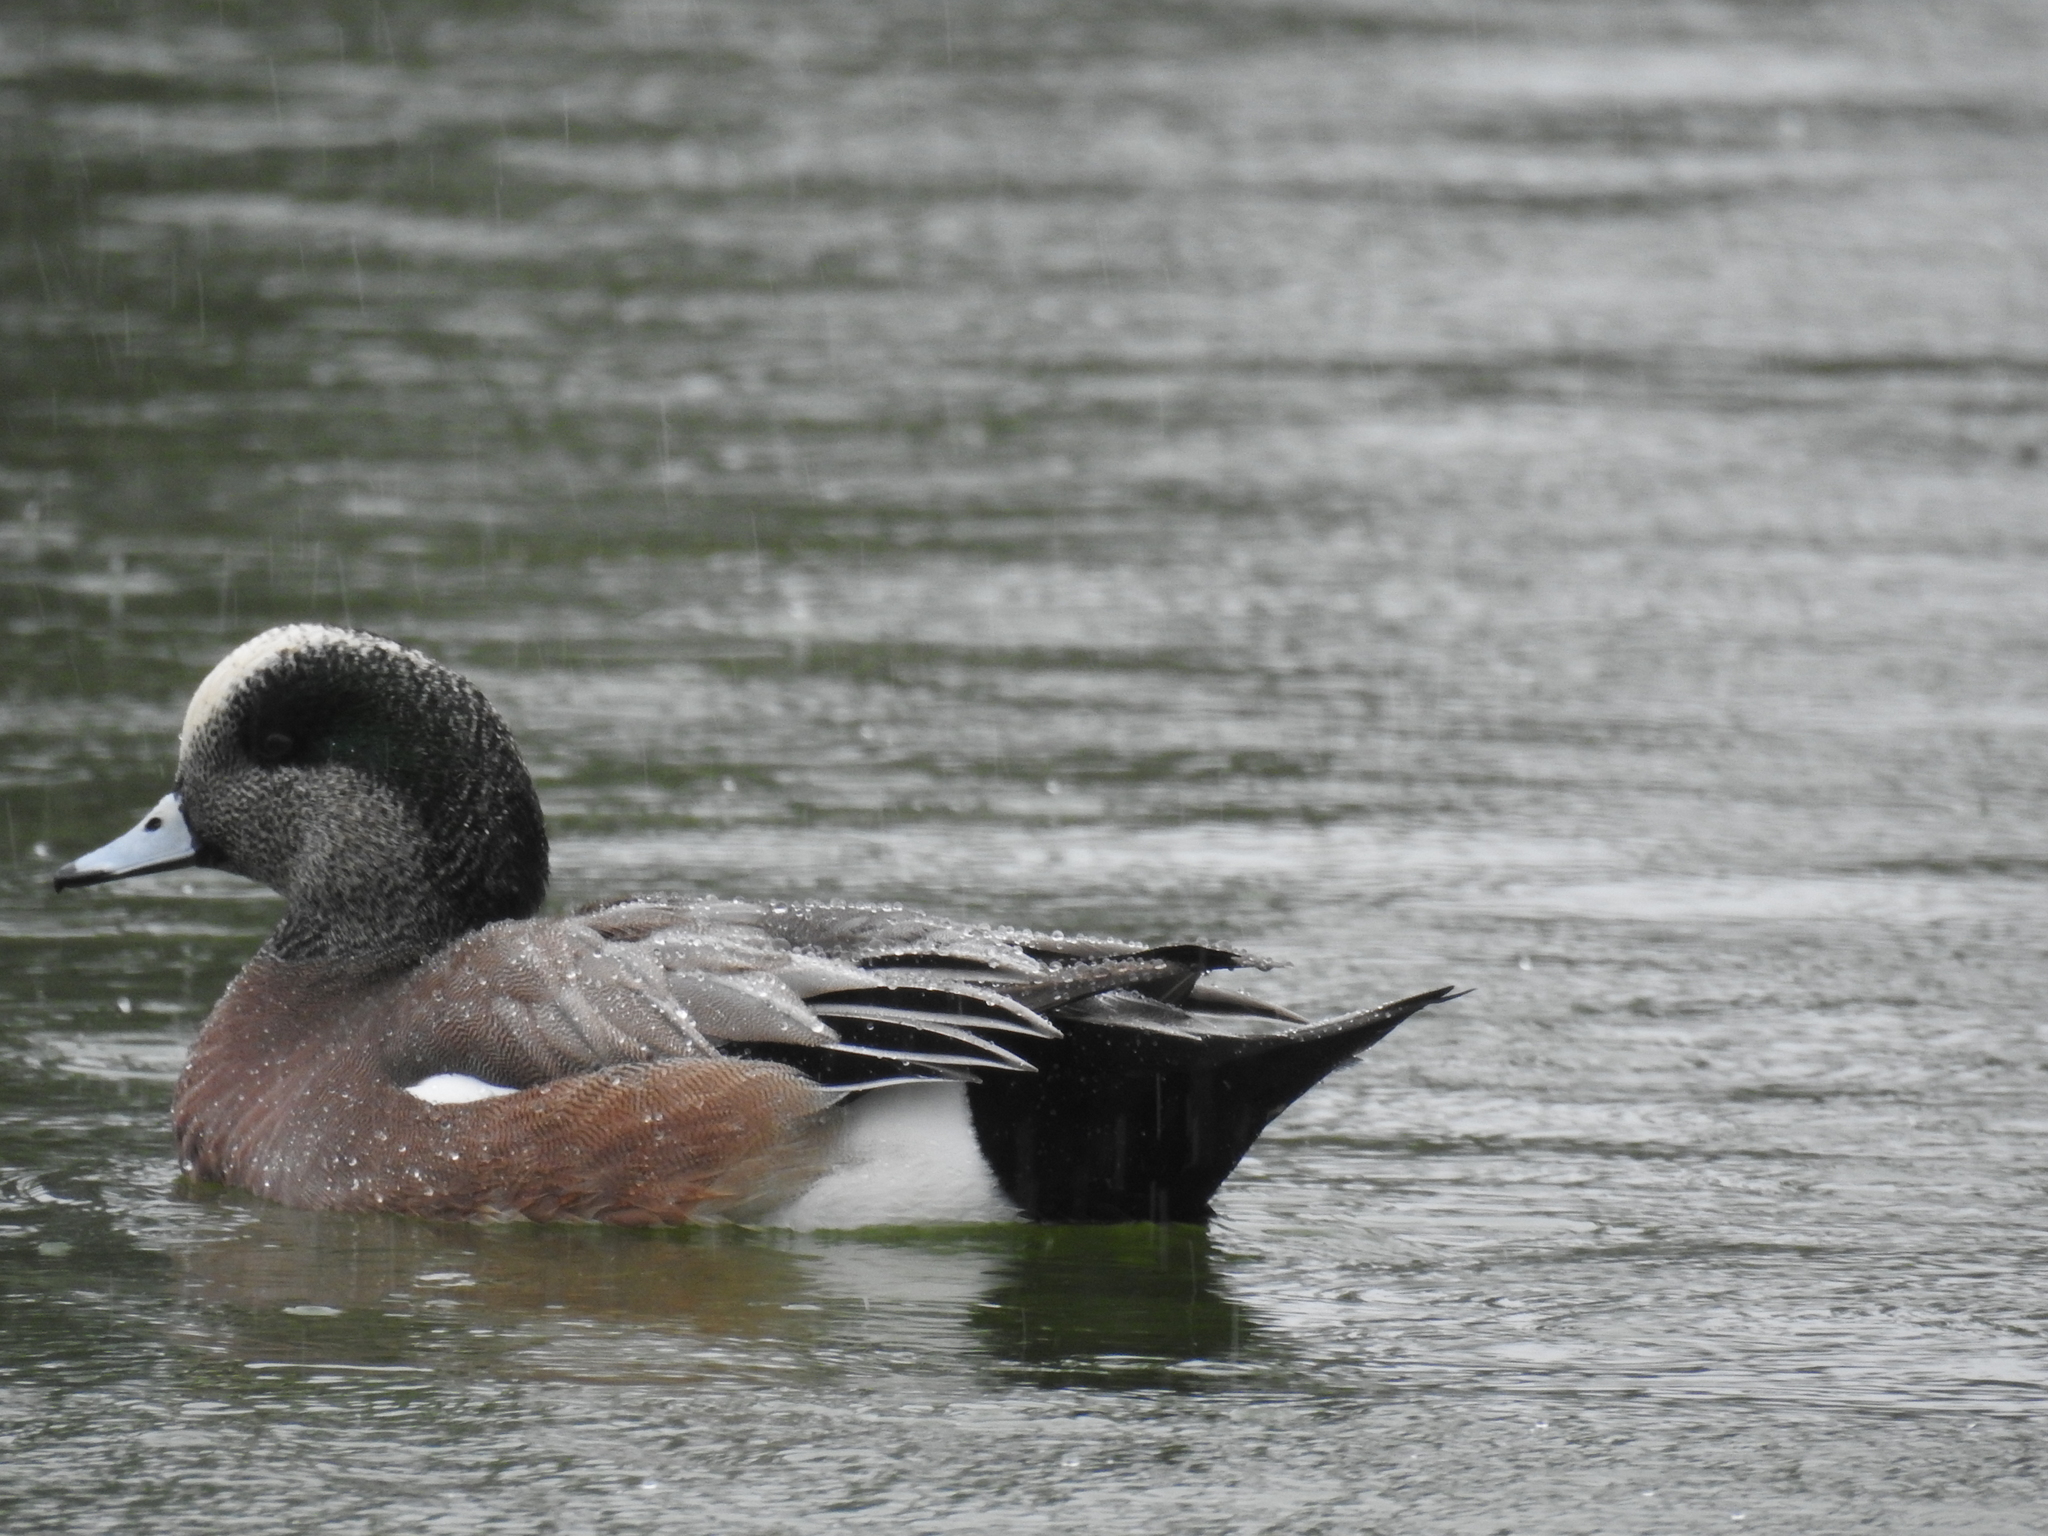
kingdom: Animalia
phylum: Chordata
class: Aves
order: Anseriformes
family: Anatidae
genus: Mareca
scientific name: Mareca americana
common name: American wigeon
